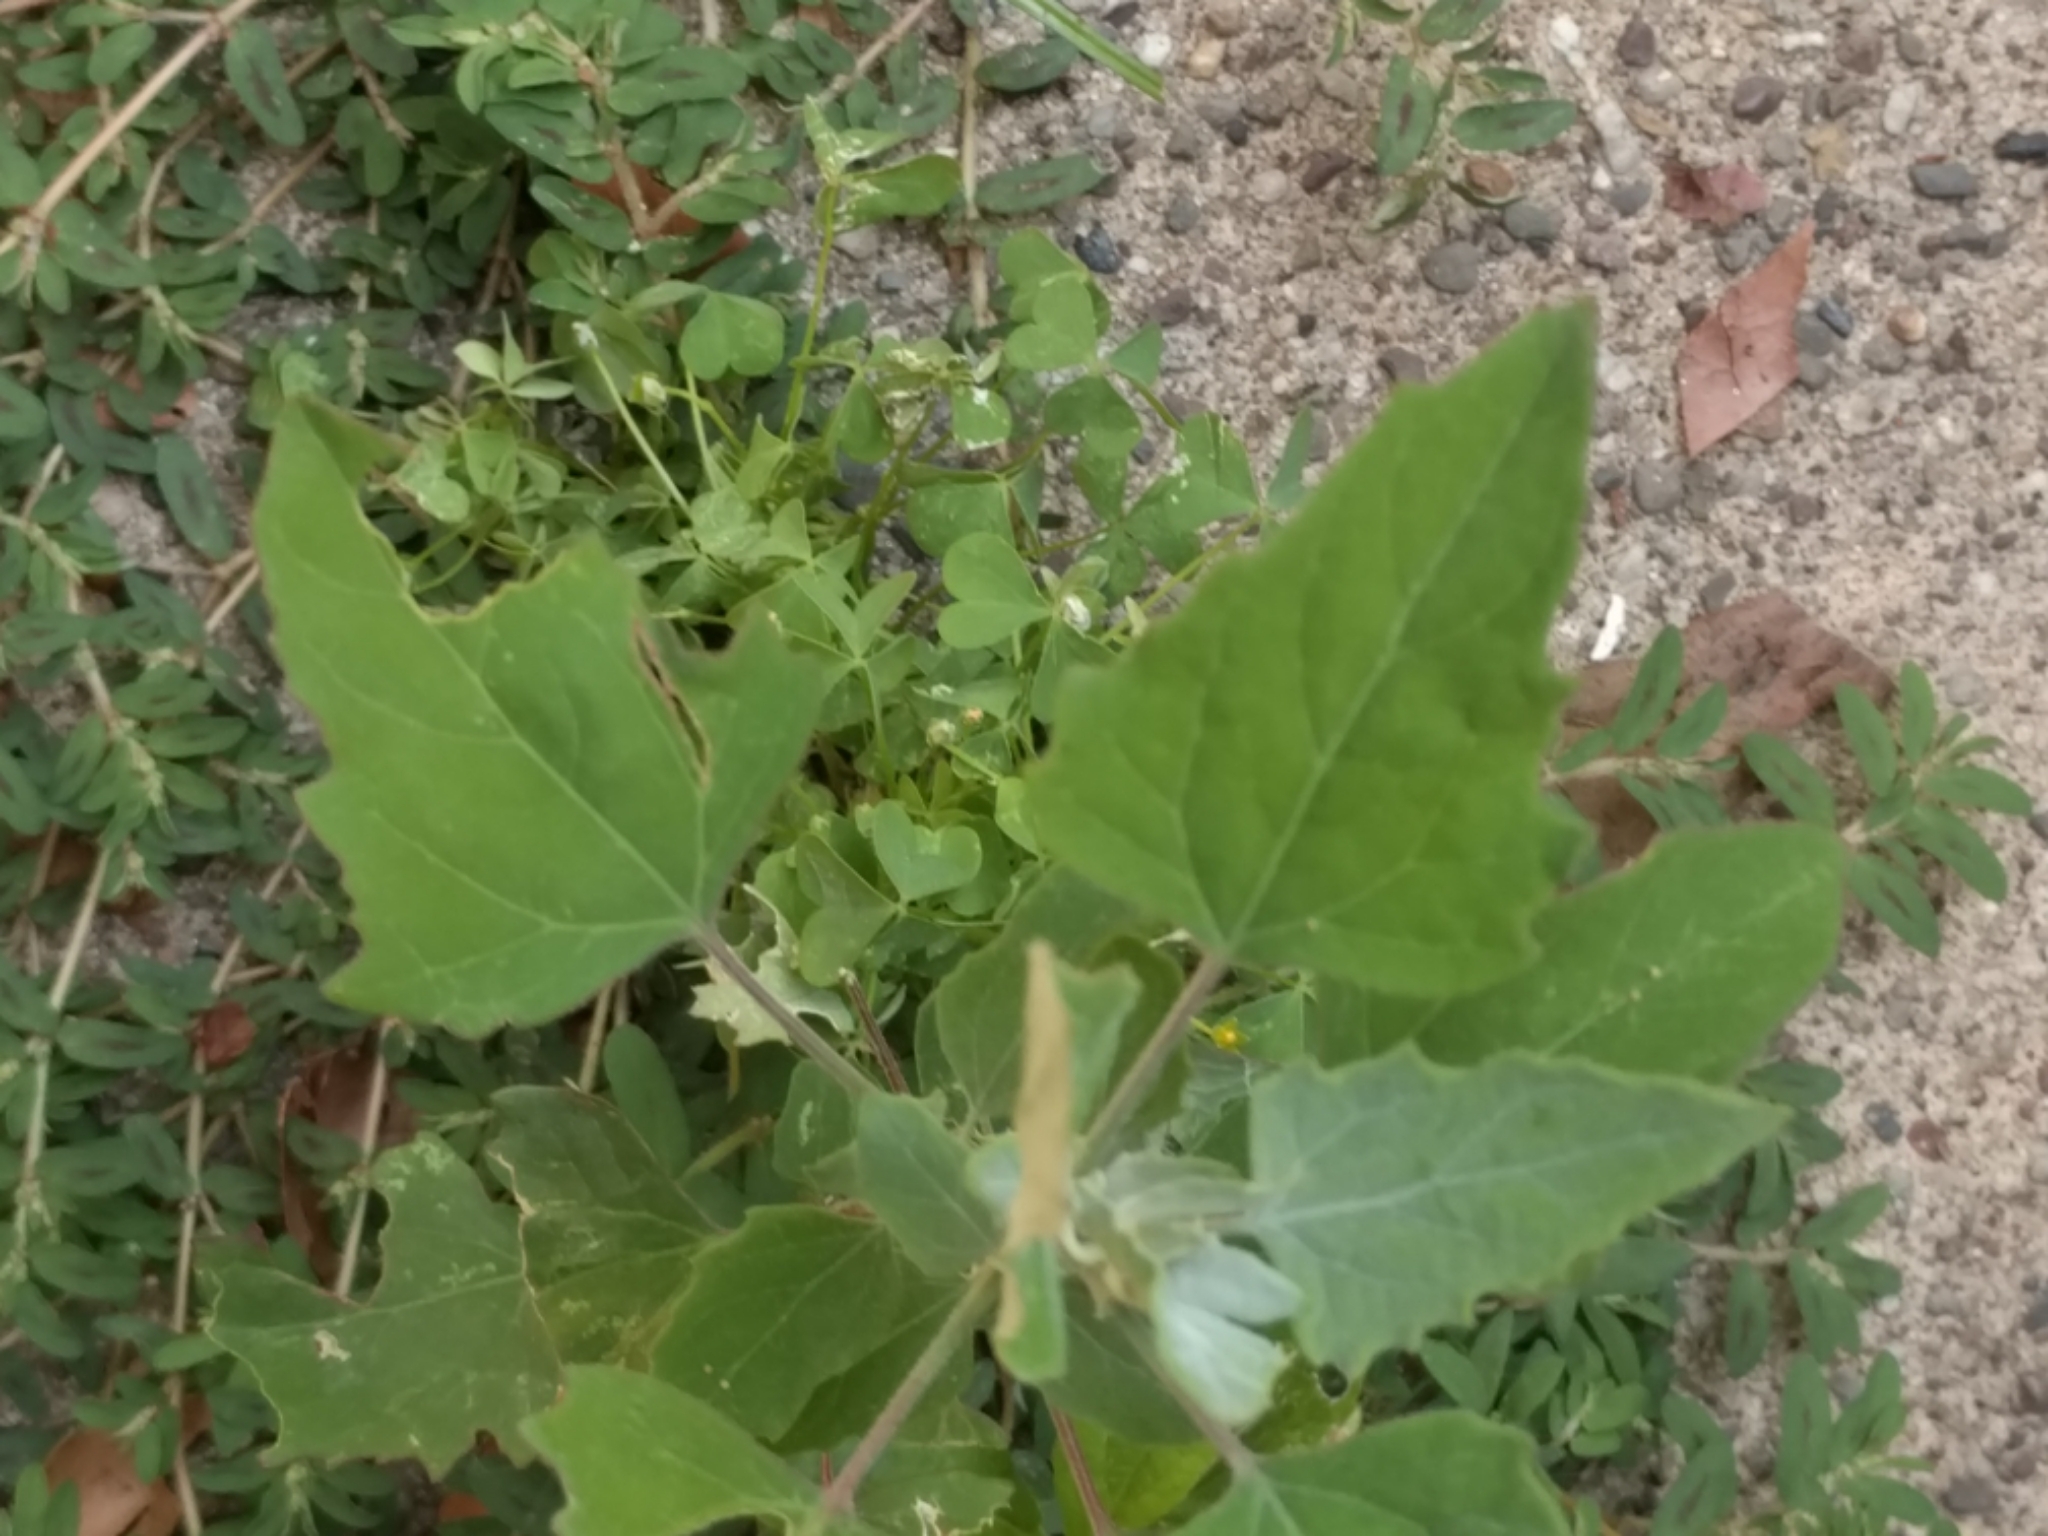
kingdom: Plantae
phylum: Tracheophyta
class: Magnoliopsida
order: Caryophyllales
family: Amaranthaceae
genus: Chenopodium
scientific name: Chenopodium album
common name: Fat-hen
